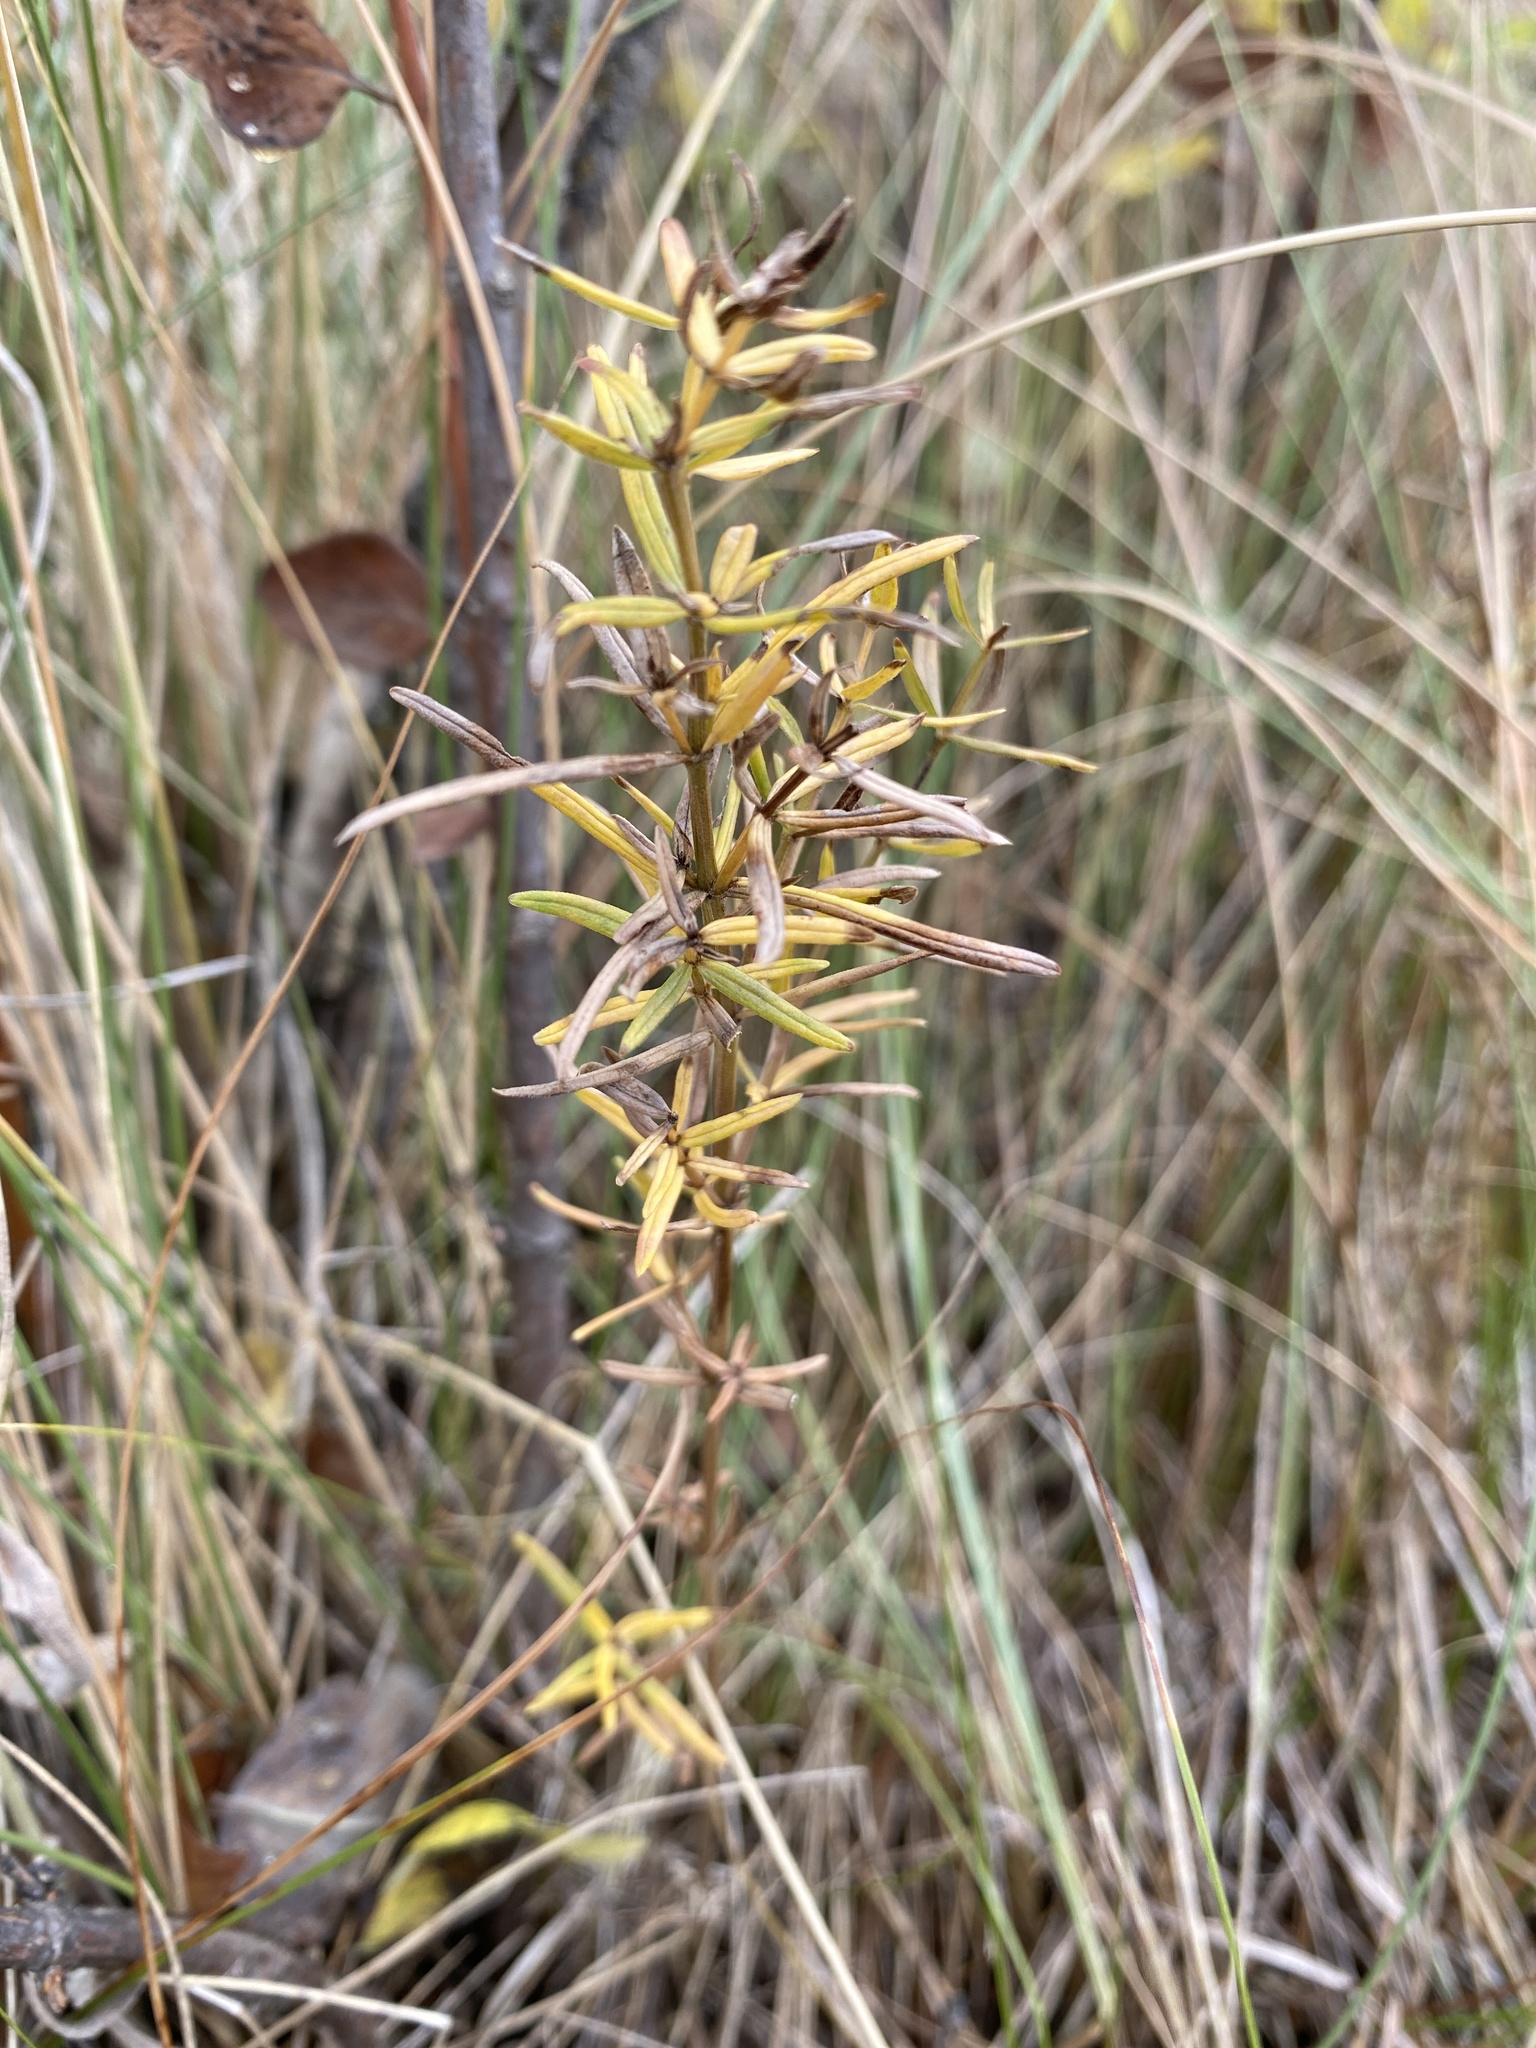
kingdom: Plantae
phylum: Tracheophyta
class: Magnoliopsida
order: Gentianales
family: Rubiaceae
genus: Galium
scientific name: Galium boreale
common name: Northern bedstraw
